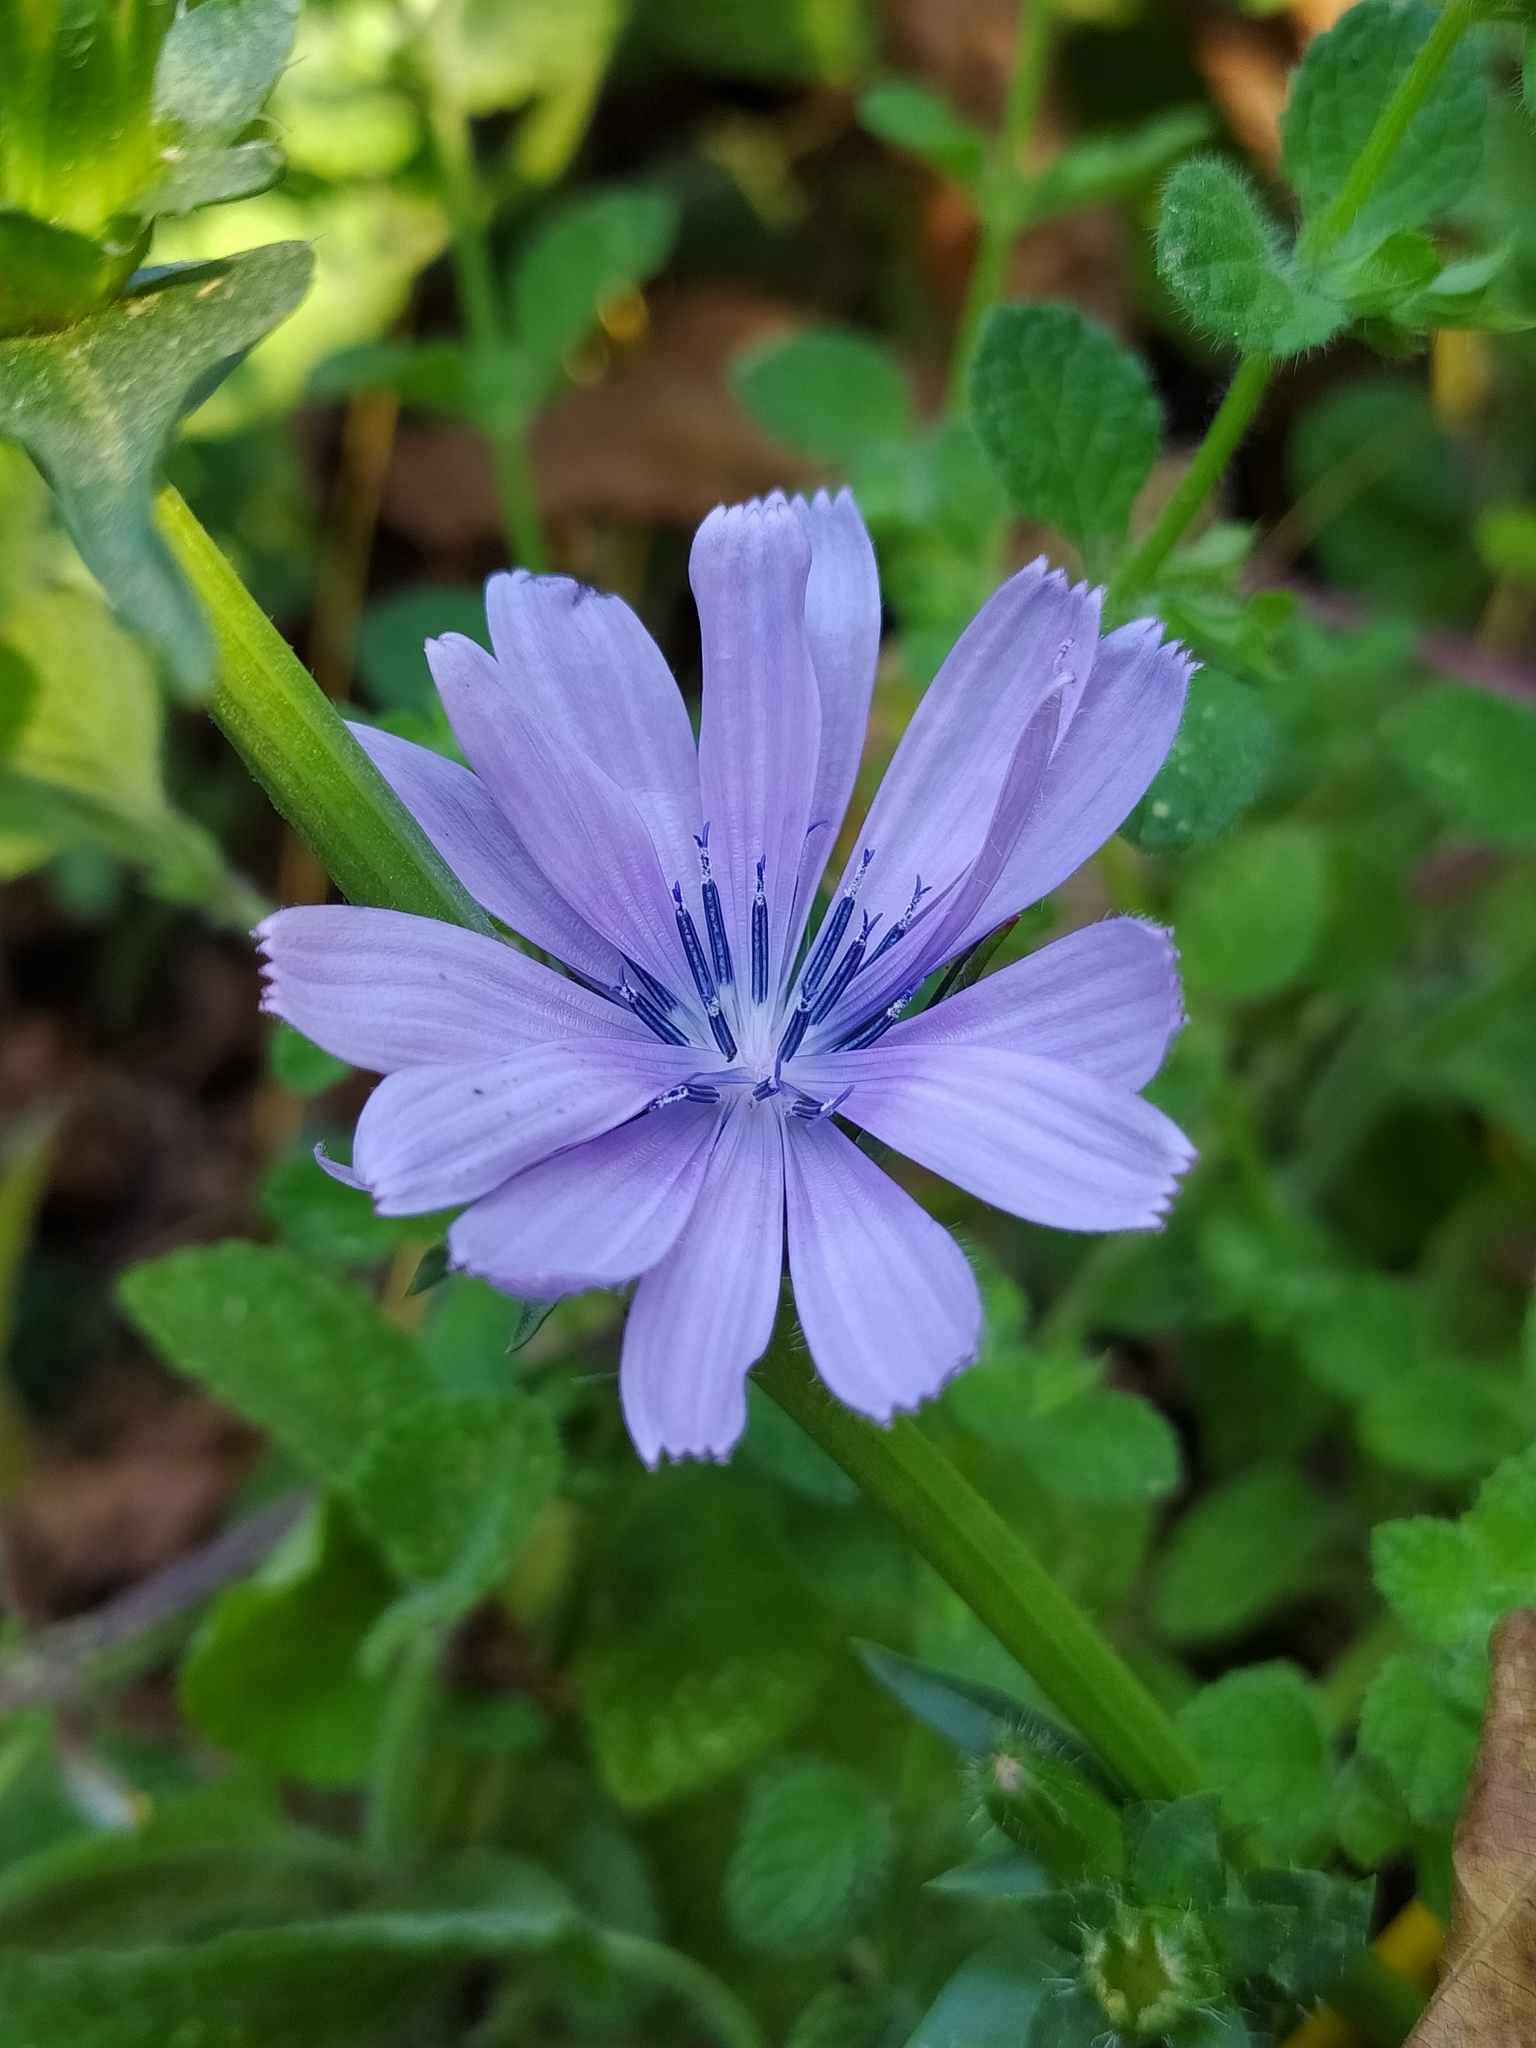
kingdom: Plantae
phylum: Tracheophyta
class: Magnoliopsida
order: Asterales
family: Asteraceae
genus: Cichorium
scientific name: Cichorium intybus
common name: Chicory
